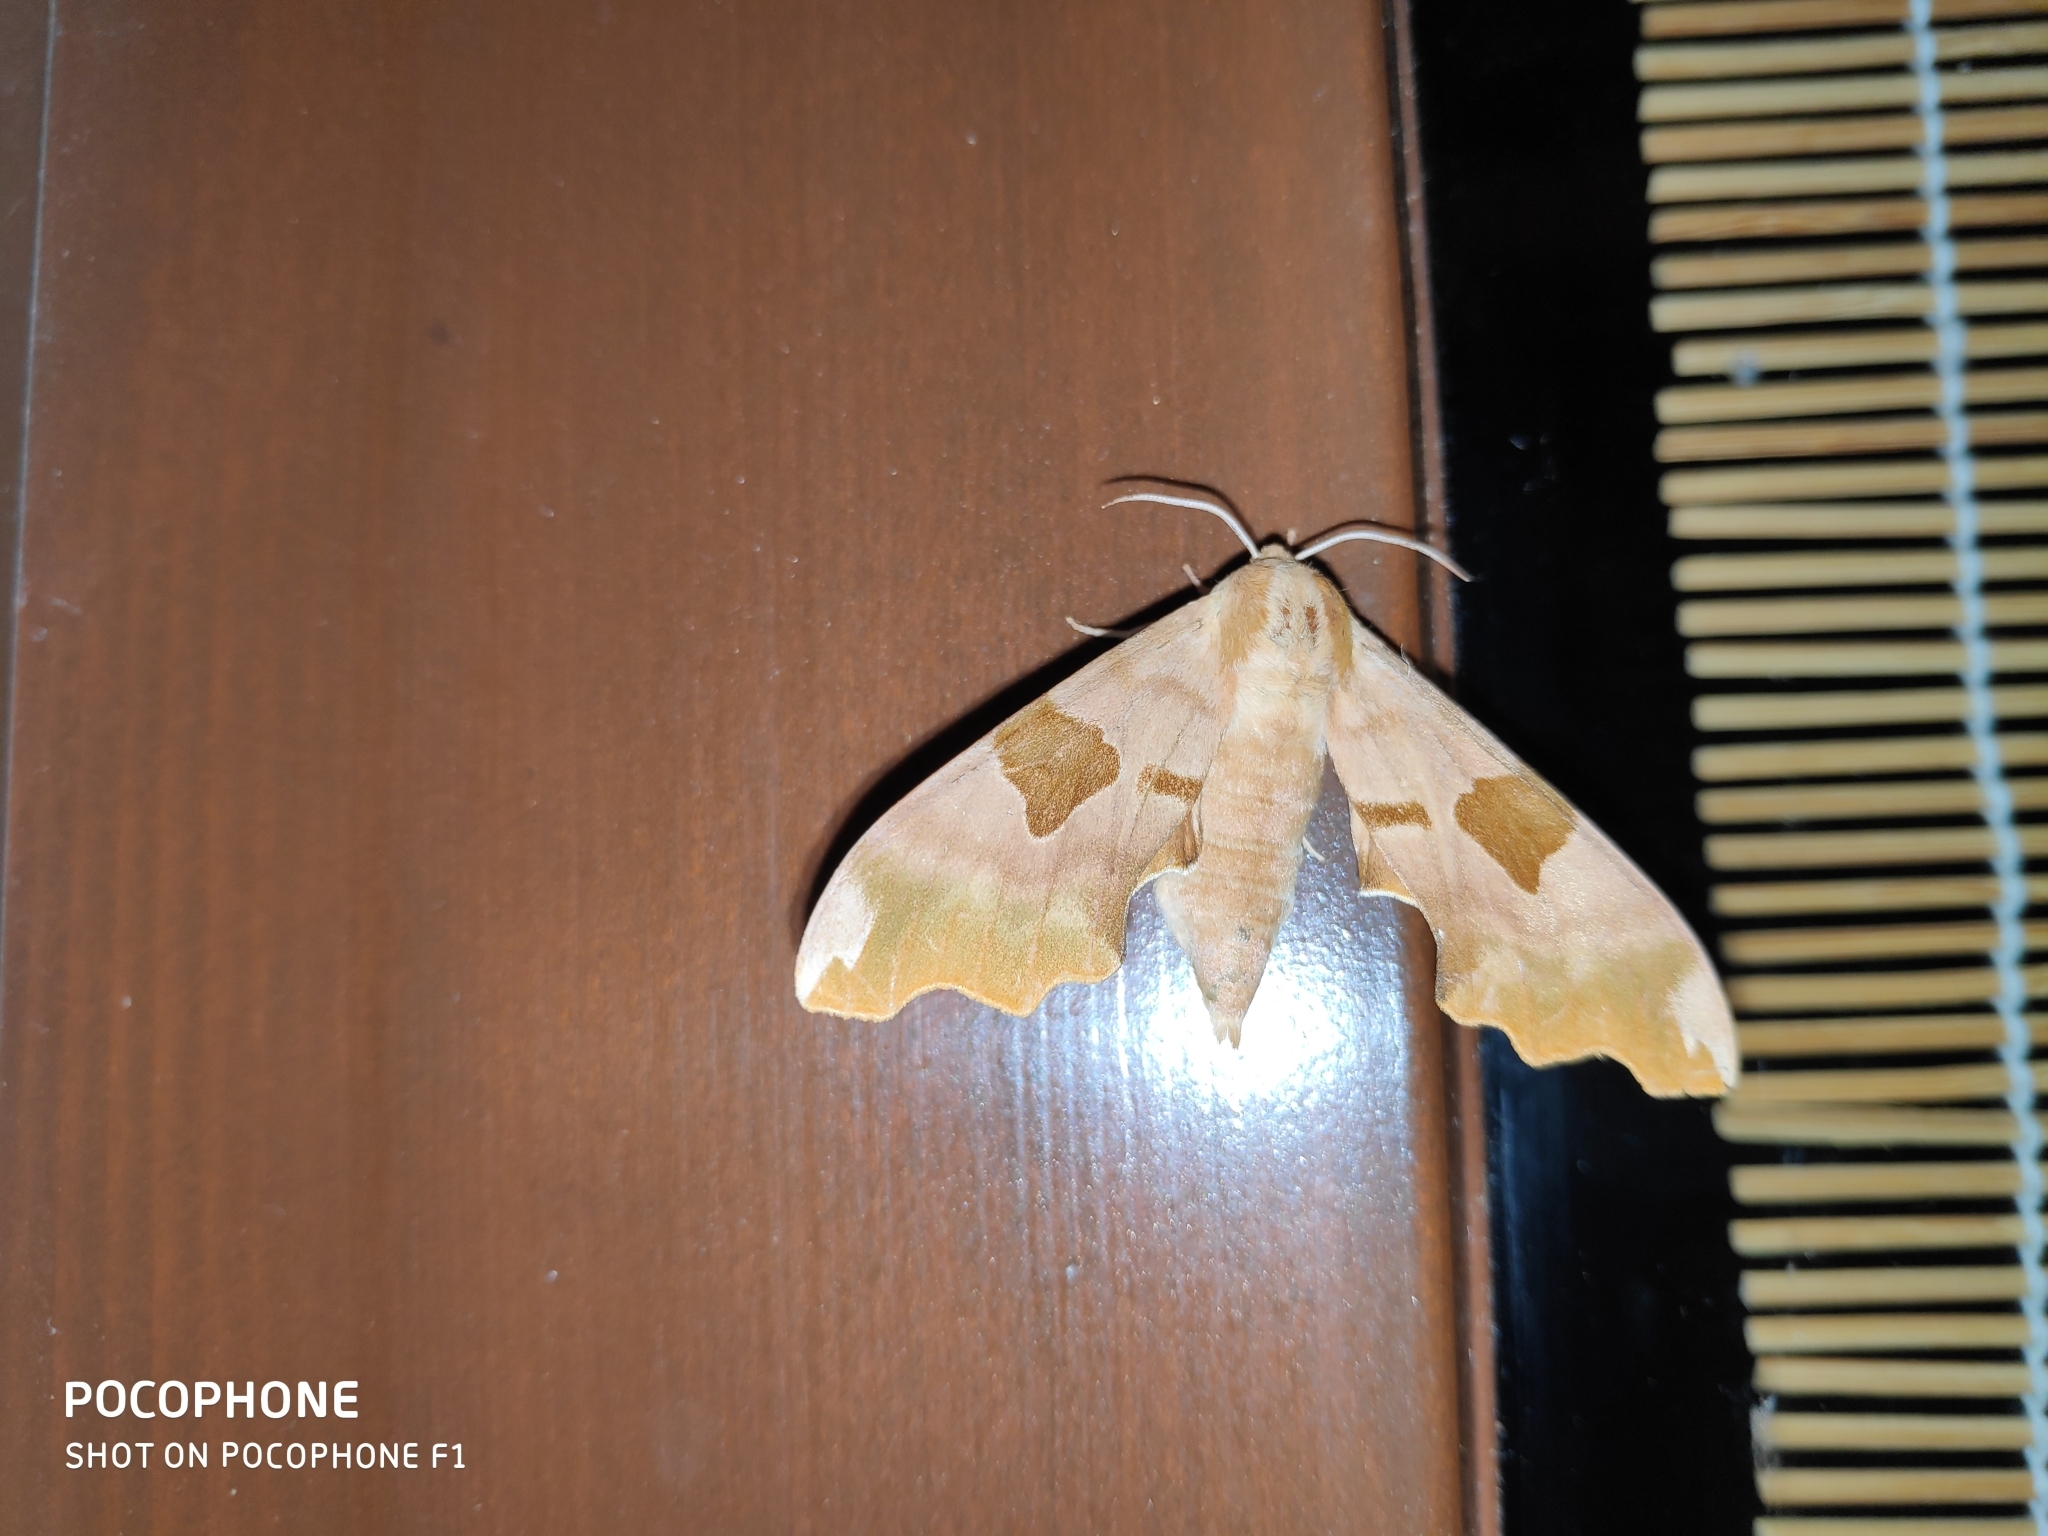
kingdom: Animalia
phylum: Arthropoda
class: Insecta
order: Lepidoptera
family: Sphingidae
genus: Mimas
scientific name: Mimas tiliae
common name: Lime hawk-moth
